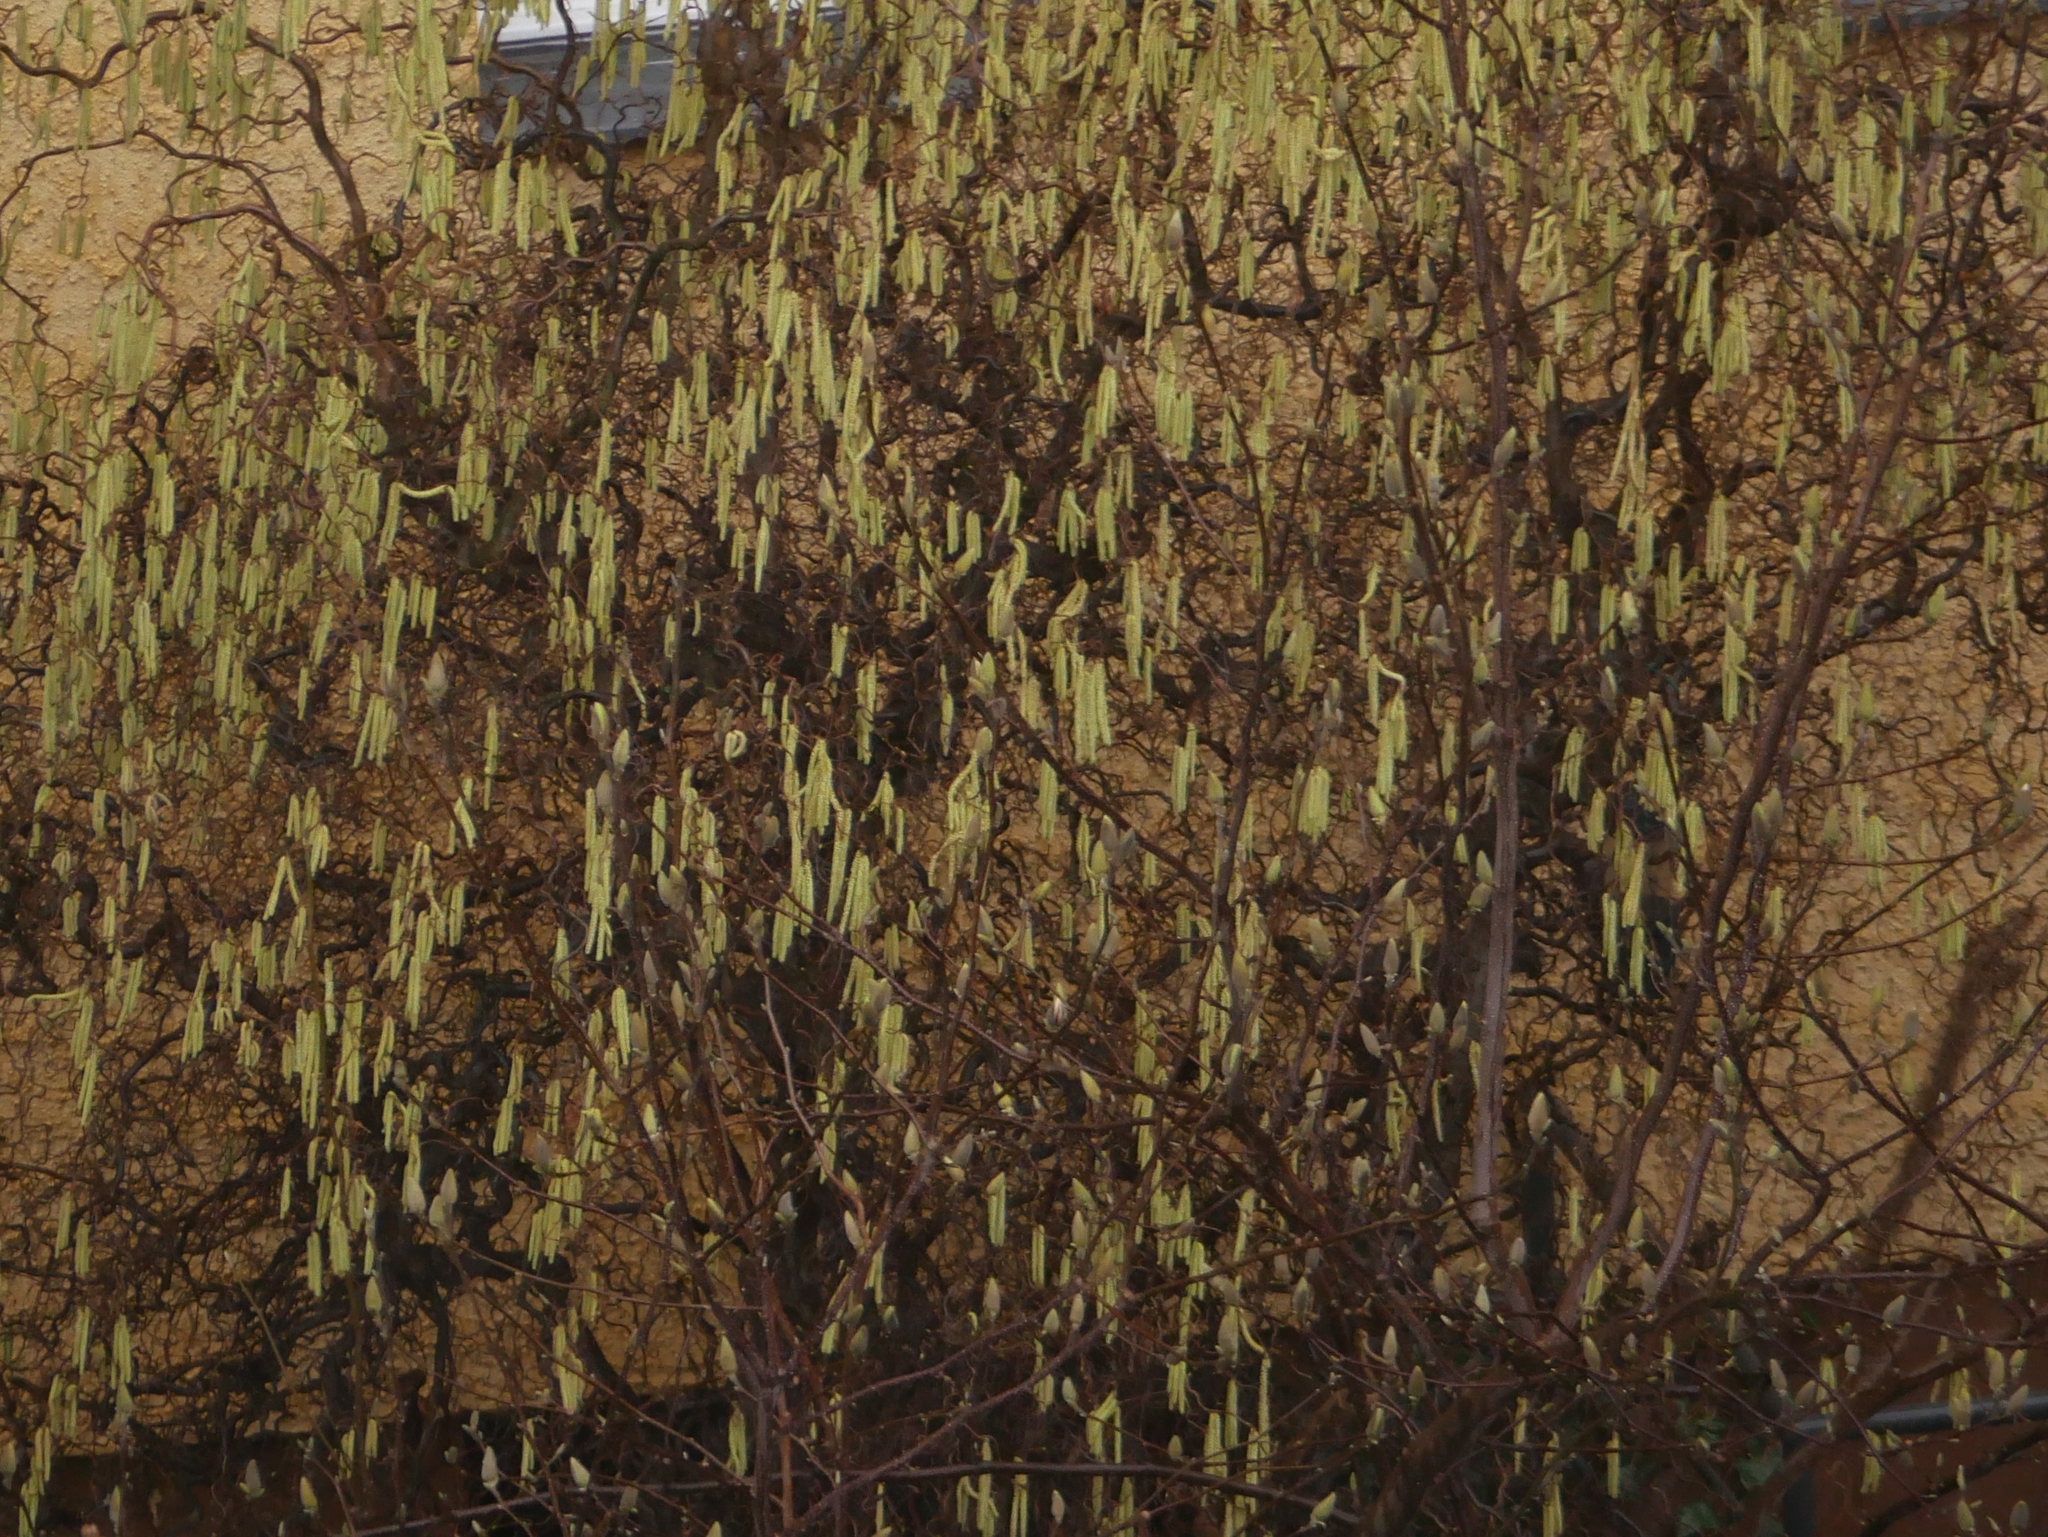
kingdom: Plantae
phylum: Tracheophyta
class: Magnoliopsida
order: Fagales
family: Betulaceae
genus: Corylus
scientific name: Corylus avellana
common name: European hazel
